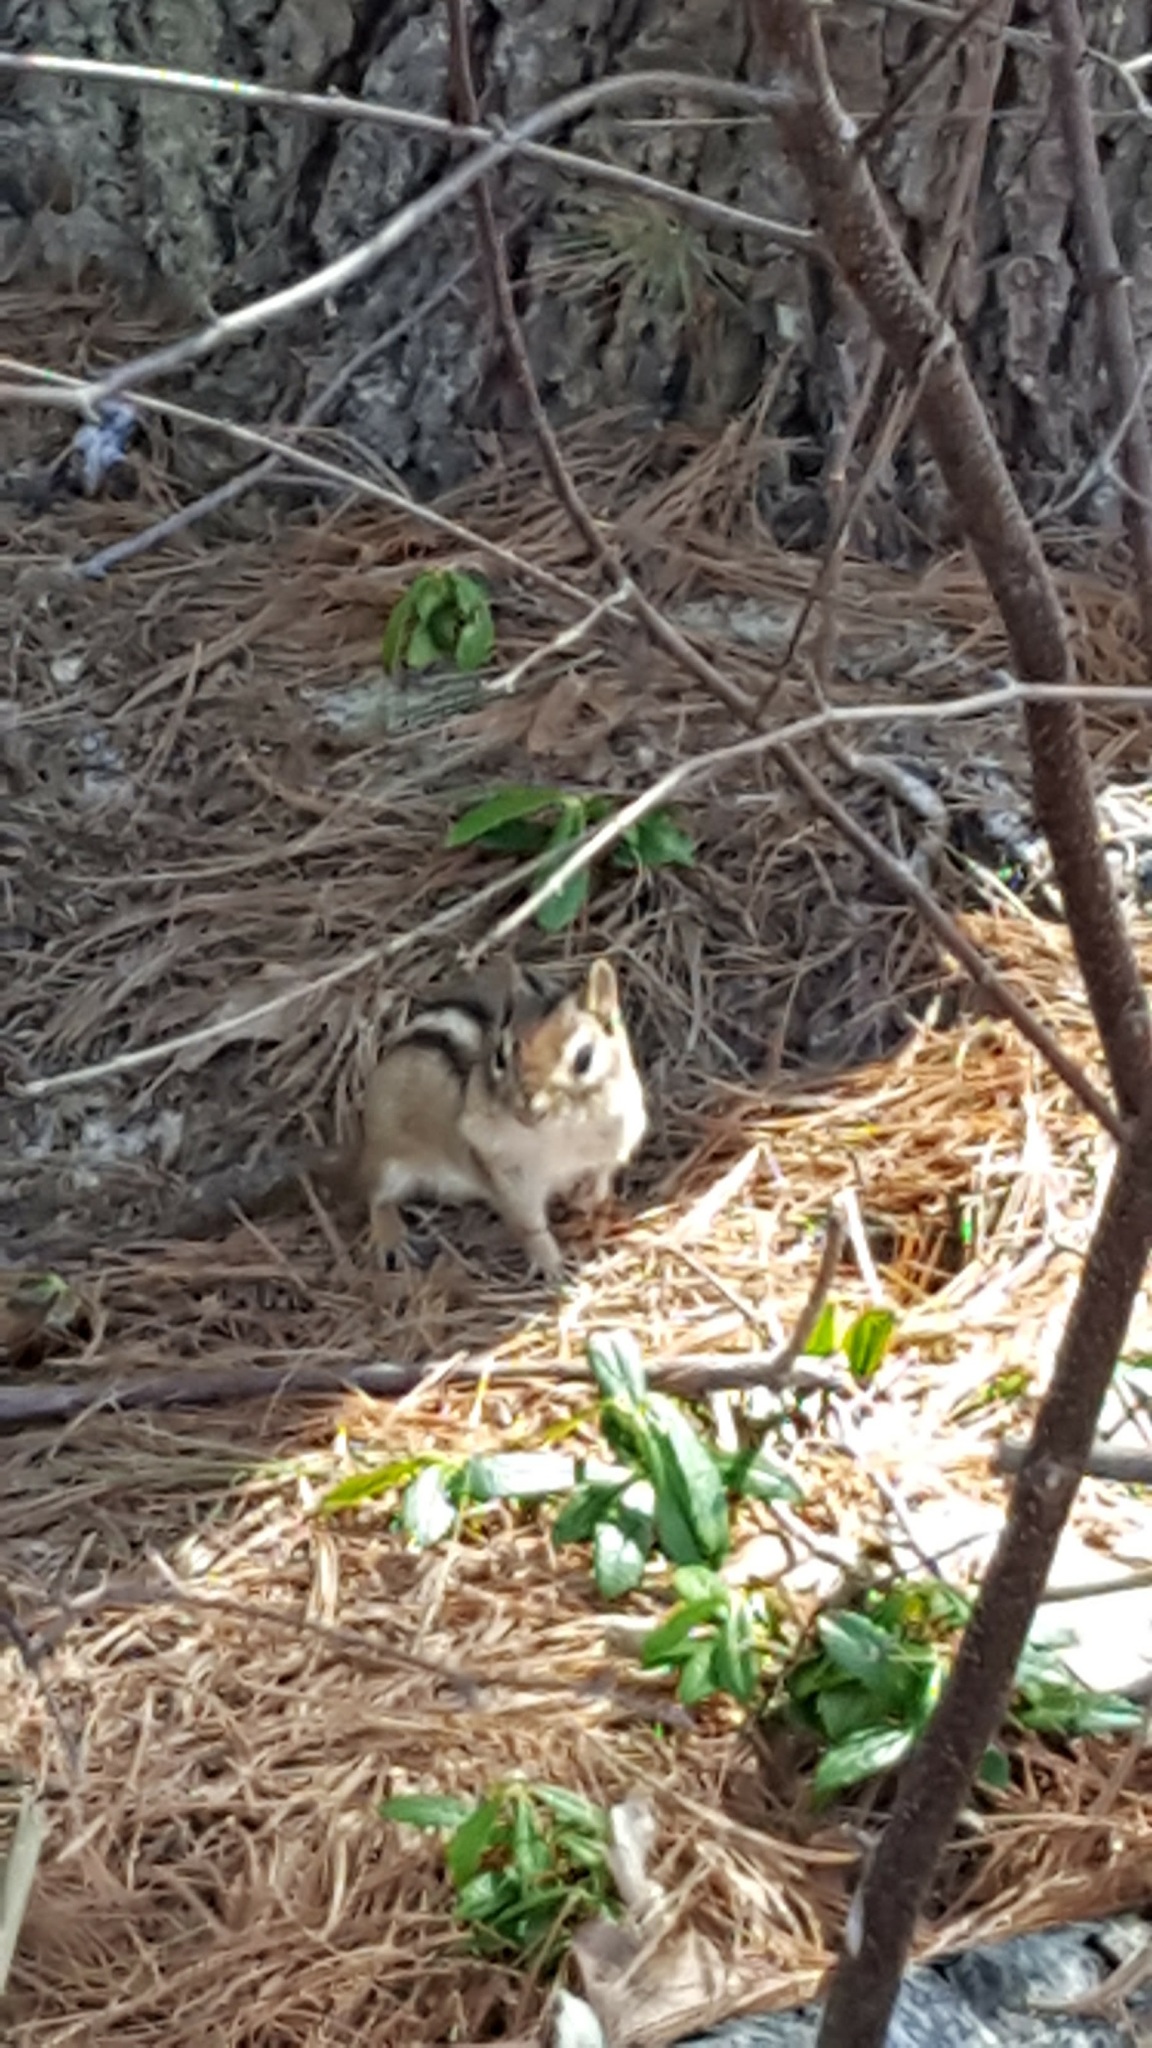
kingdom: Animalia
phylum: Chordata
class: Mammalia
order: Rodentia
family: Sciuridae
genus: Tamias
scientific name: Tamias striatus
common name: Eastern chipmunk
